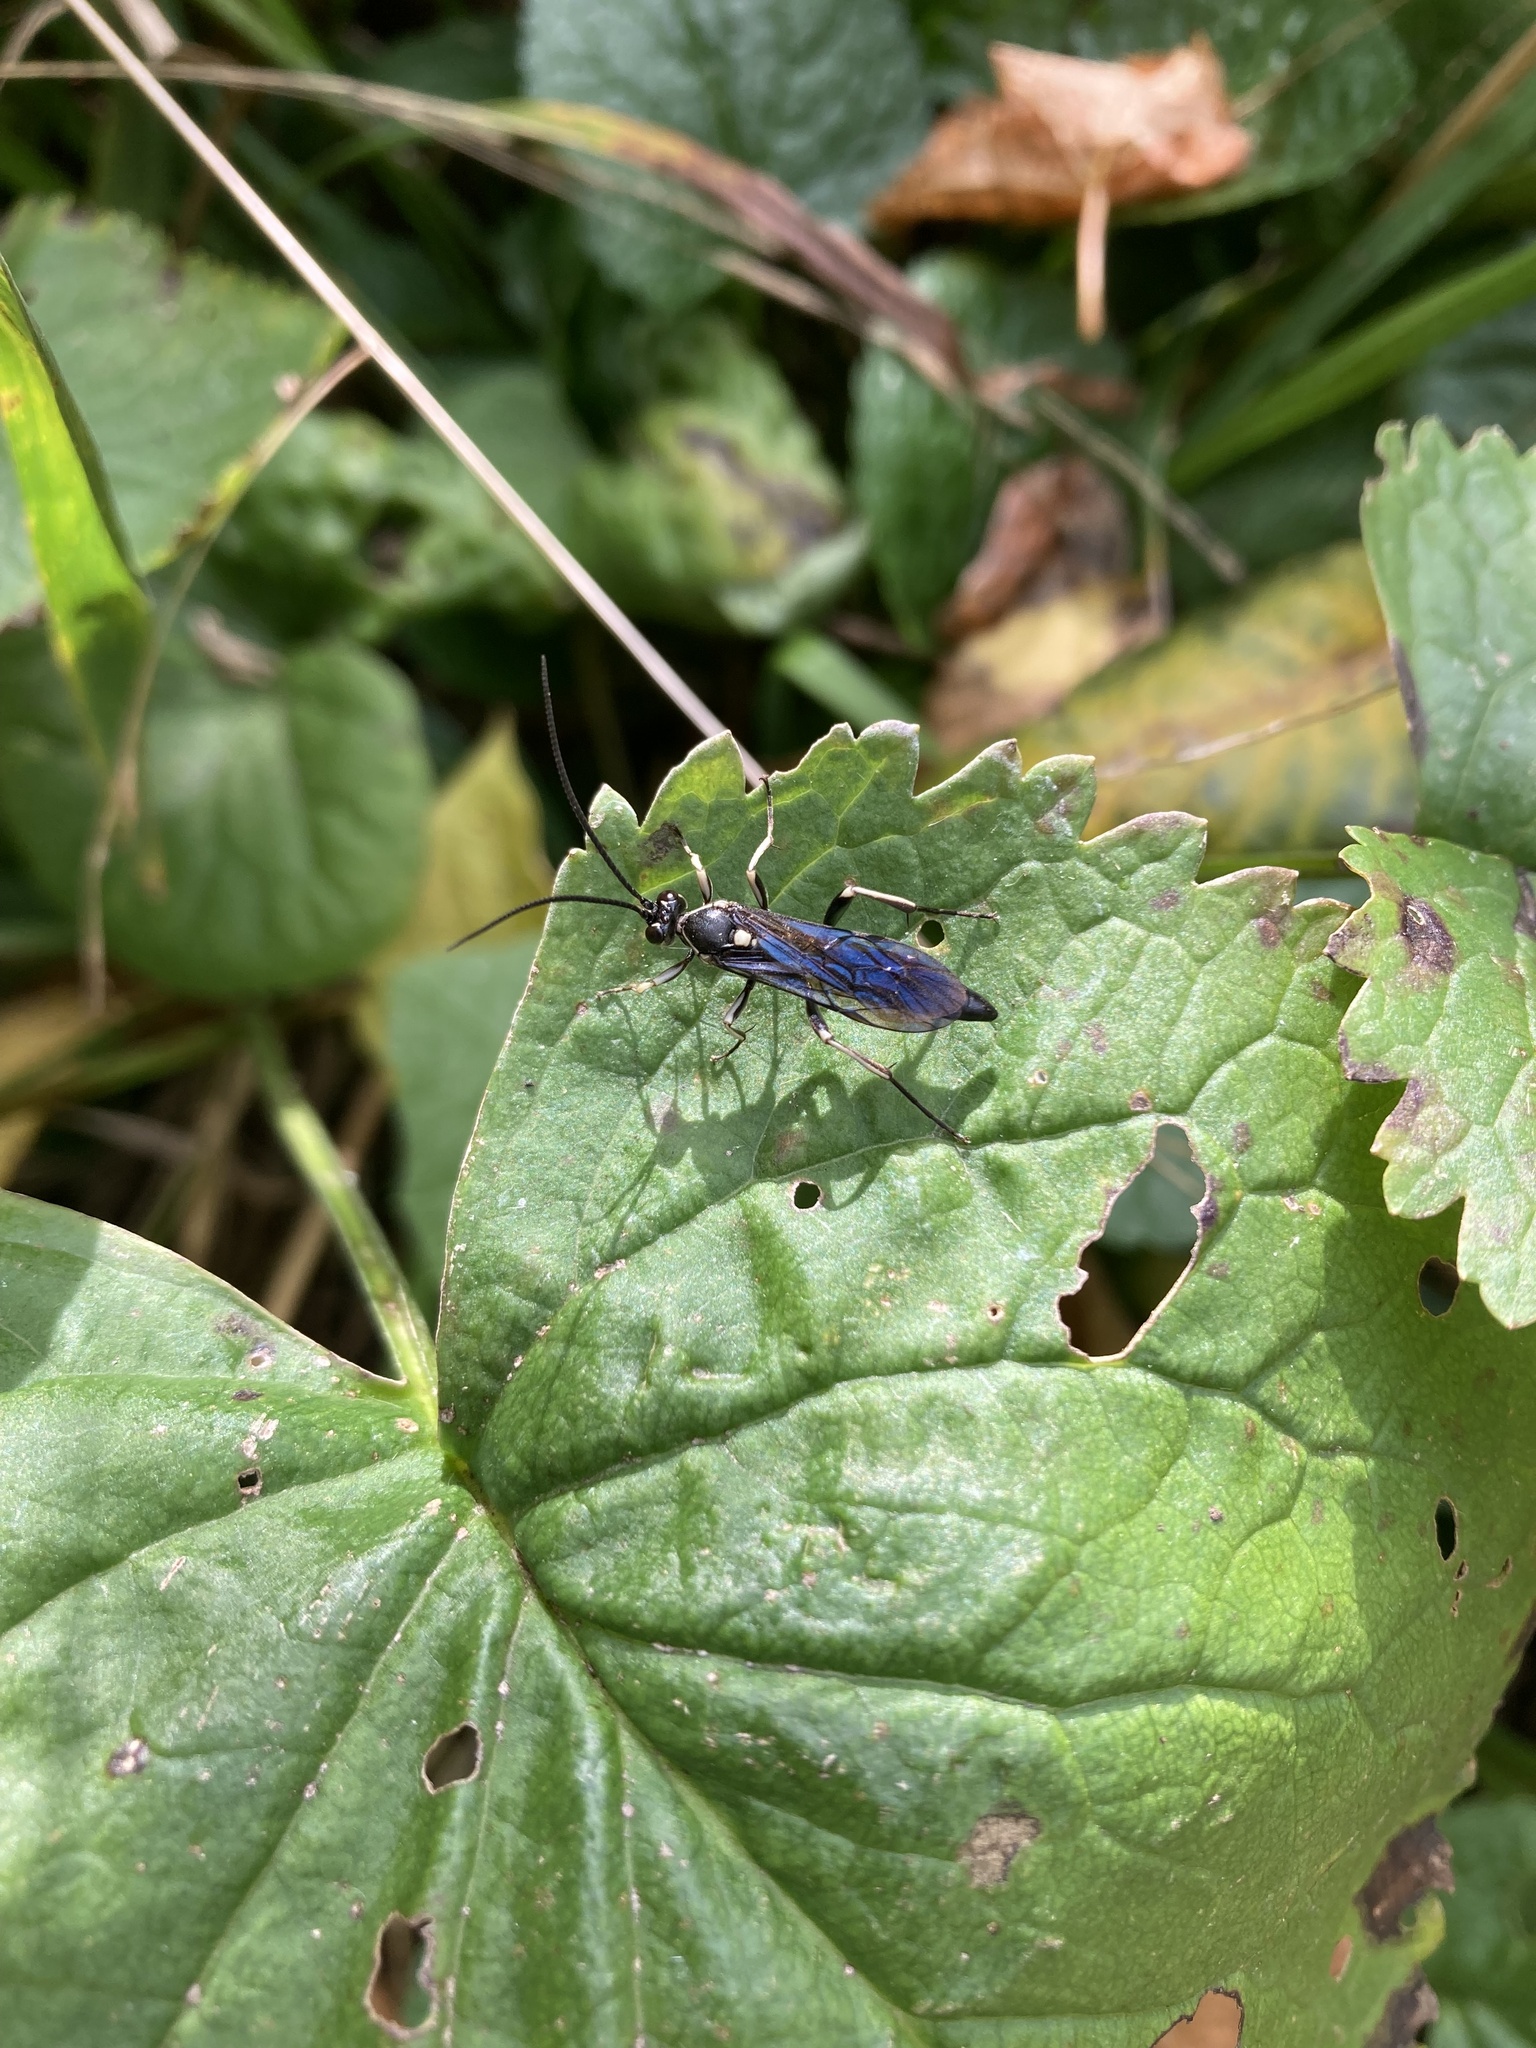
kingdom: Animalia
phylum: Arthropoda
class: Insecta
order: Hymenoptera
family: Ichneumonidae
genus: Vulgichneumon
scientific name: Vulgichneumon brevicinctor
